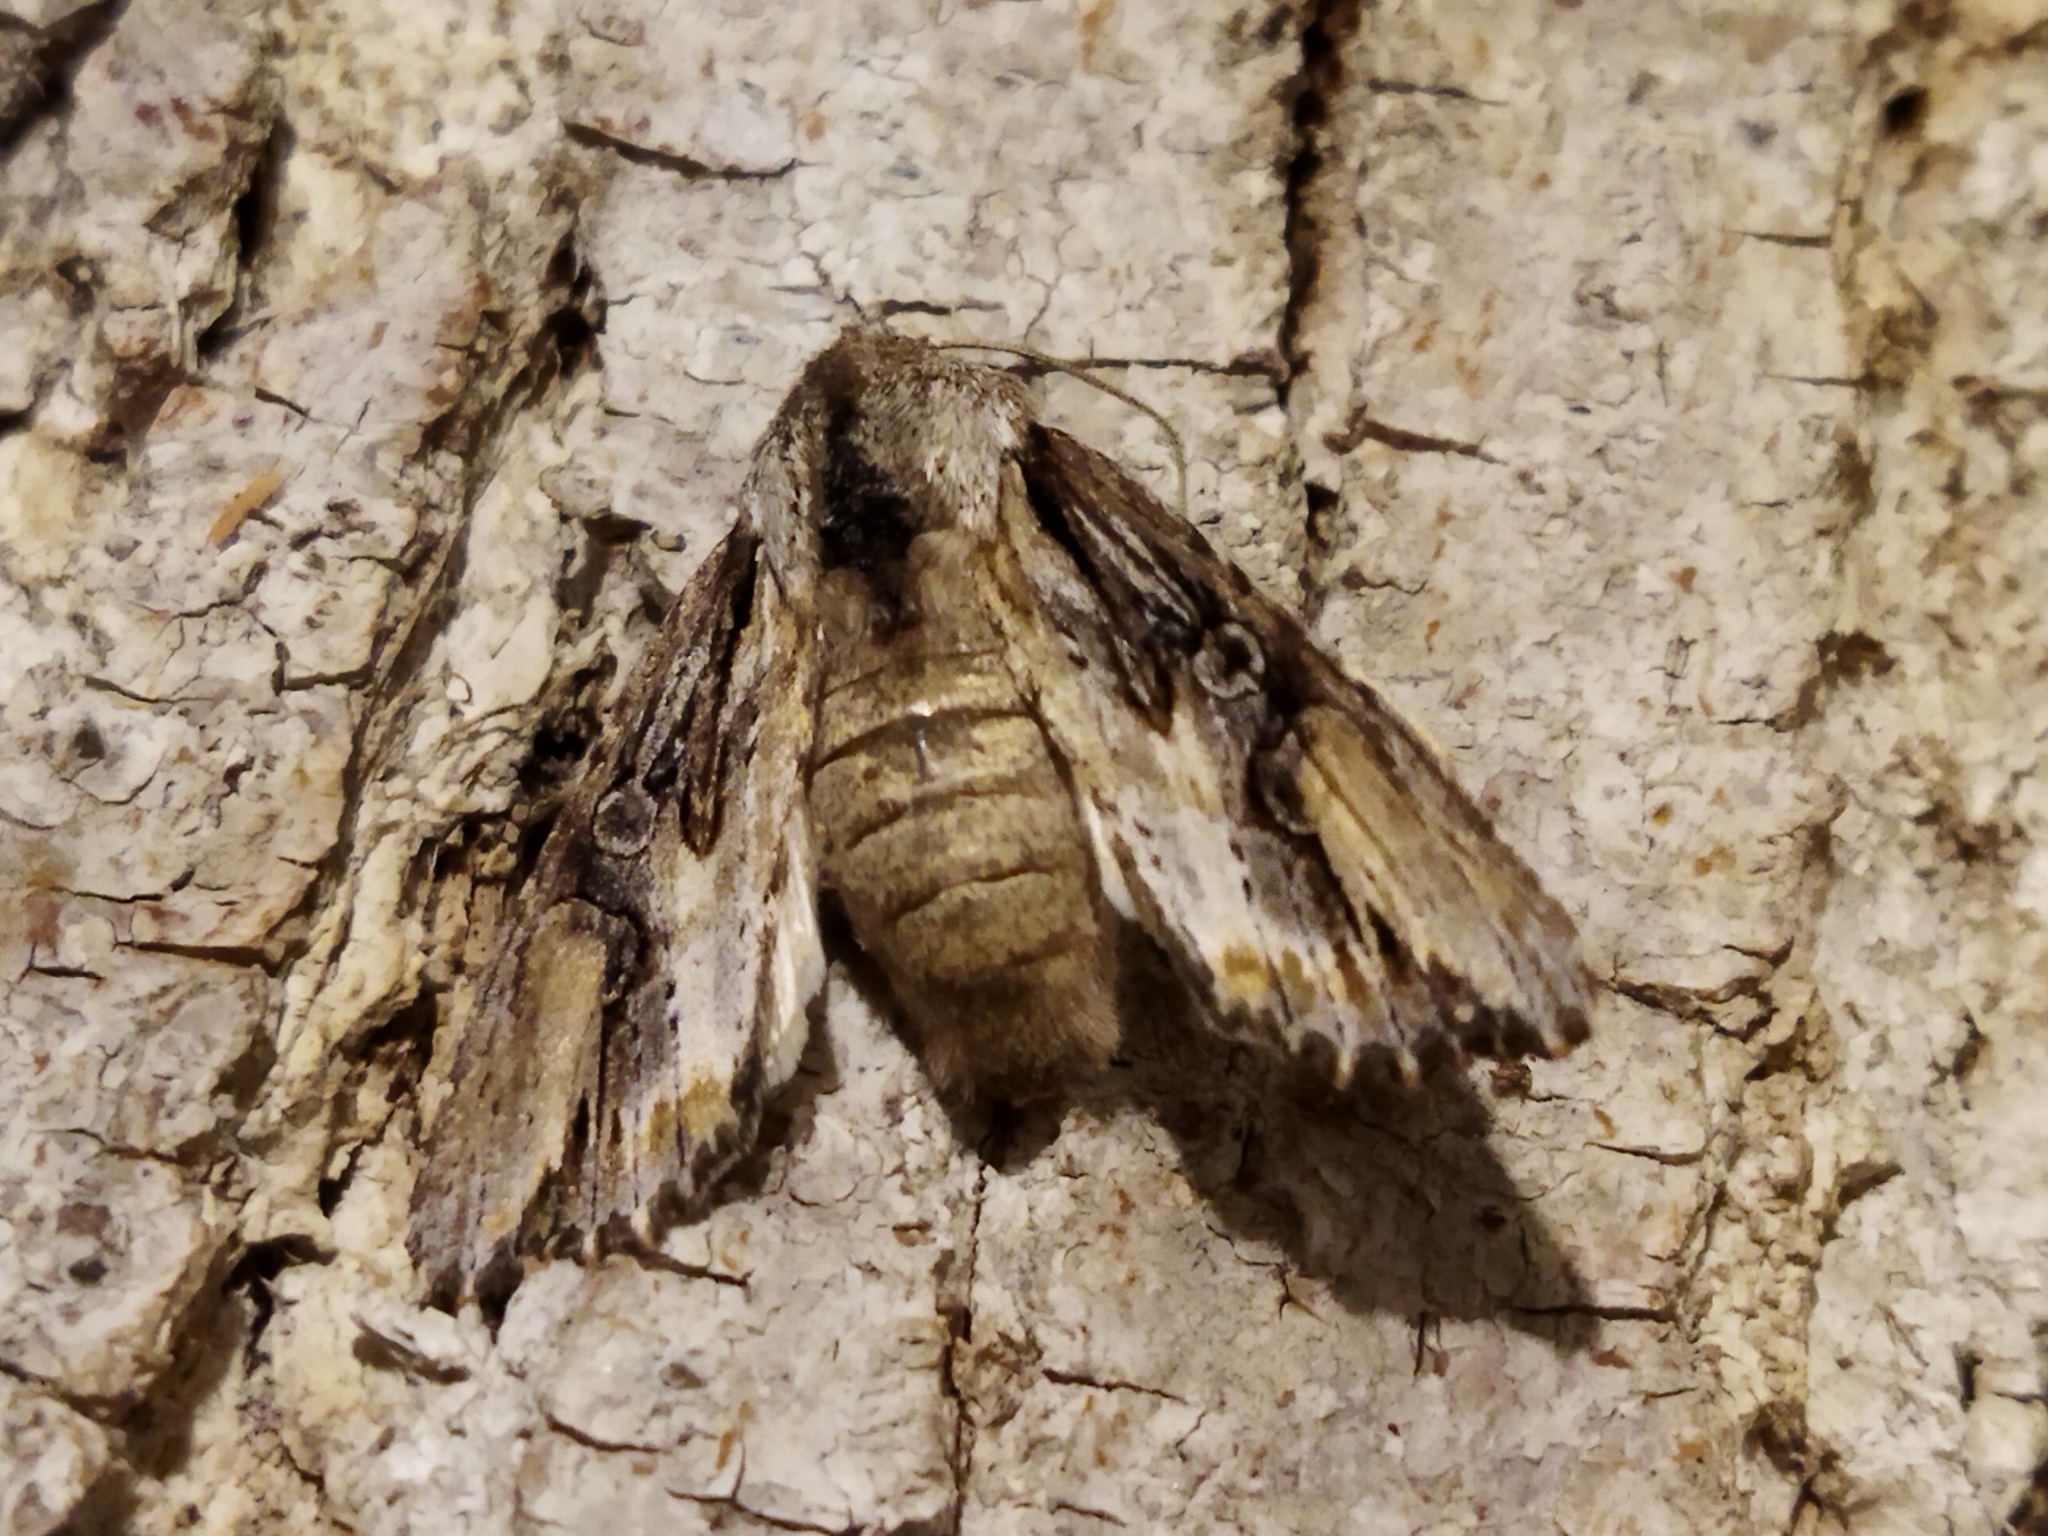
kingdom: Animalia
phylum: Arthropoda
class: Insecta
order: Lepidoptera
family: Noctuidae
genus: Egira
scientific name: Egira
